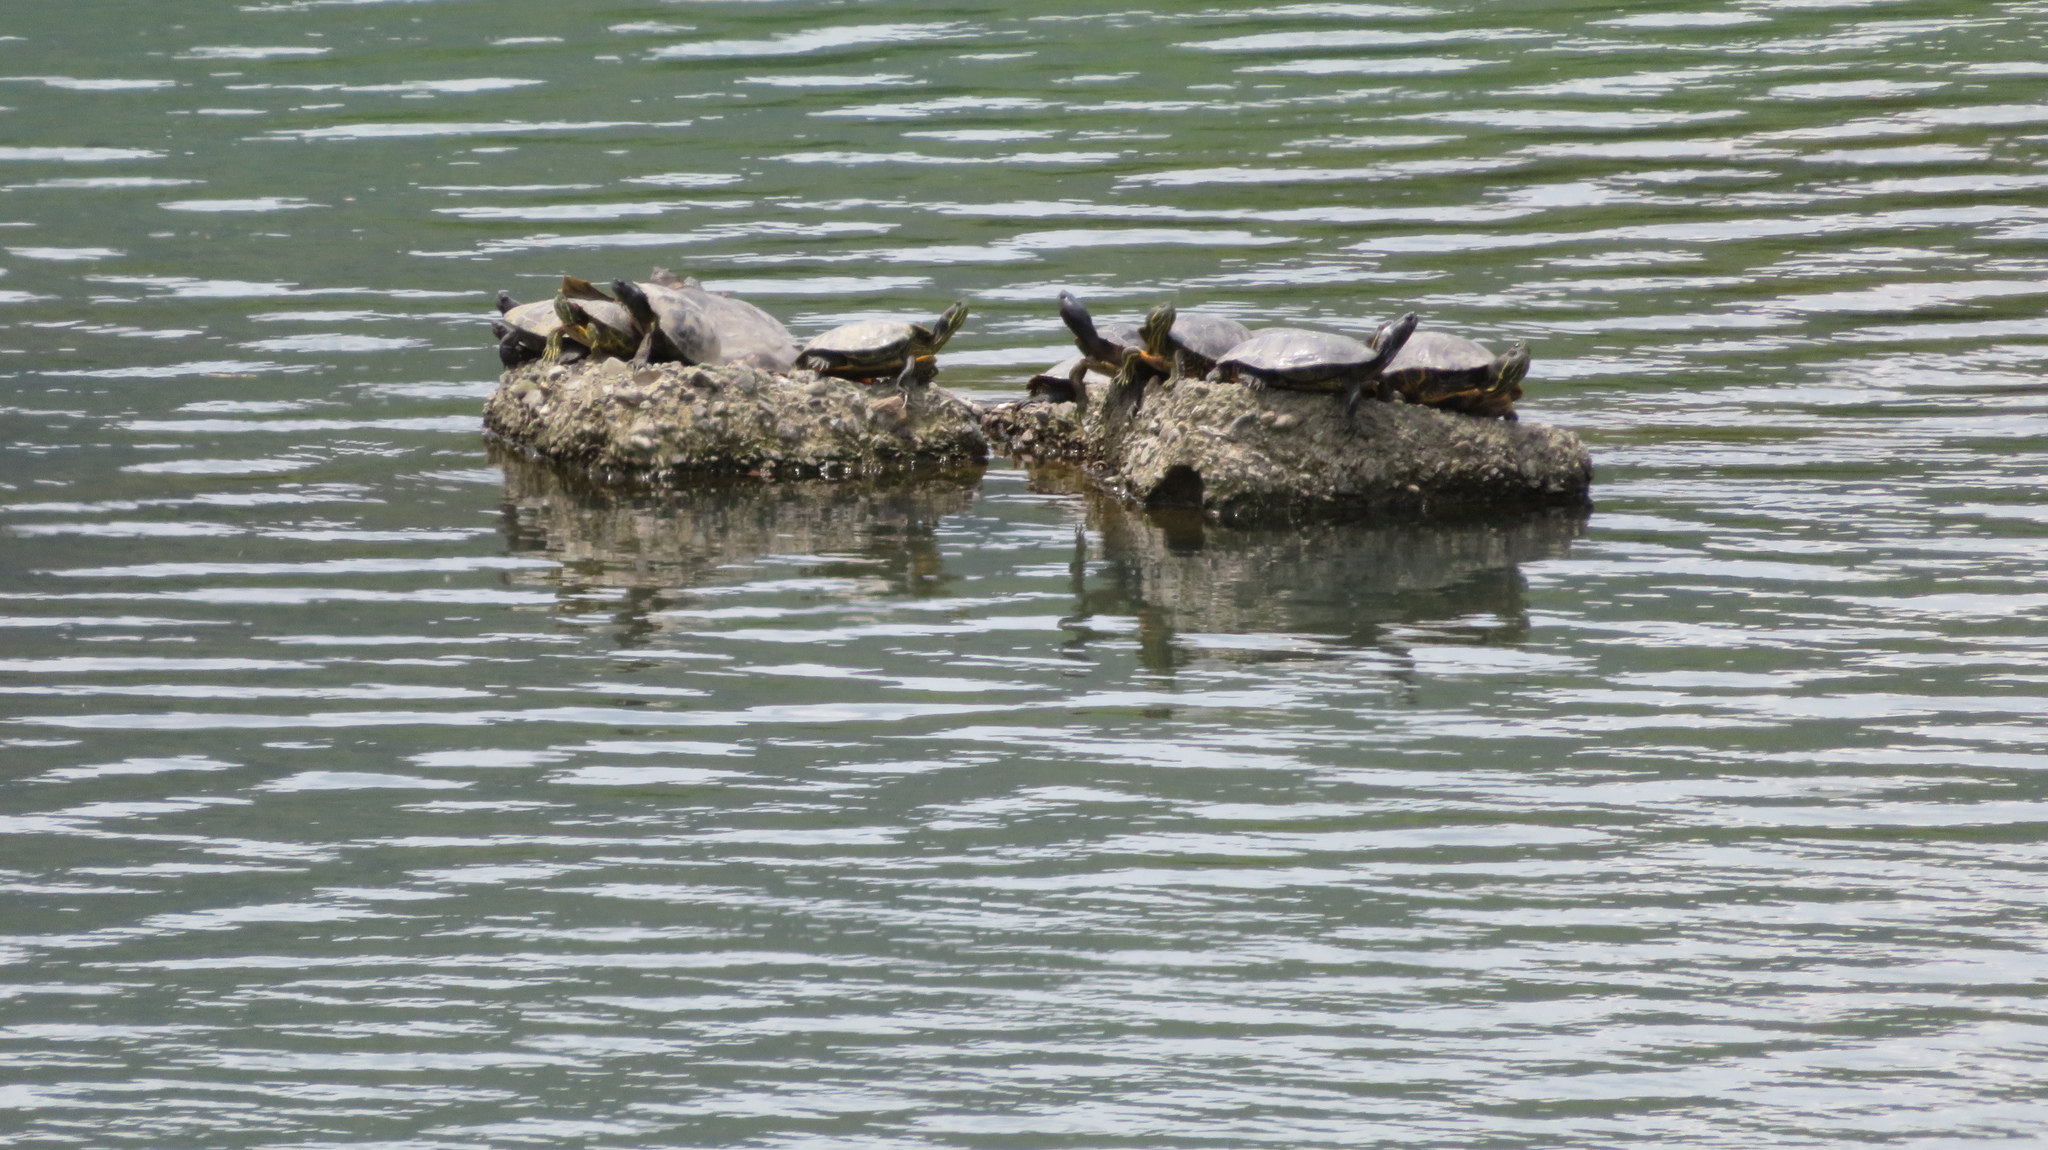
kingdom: Animalia
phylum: Chordata
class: Testudines
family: Emydidae
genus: Trachemys
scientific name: Trachemys scripta
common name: Slider
